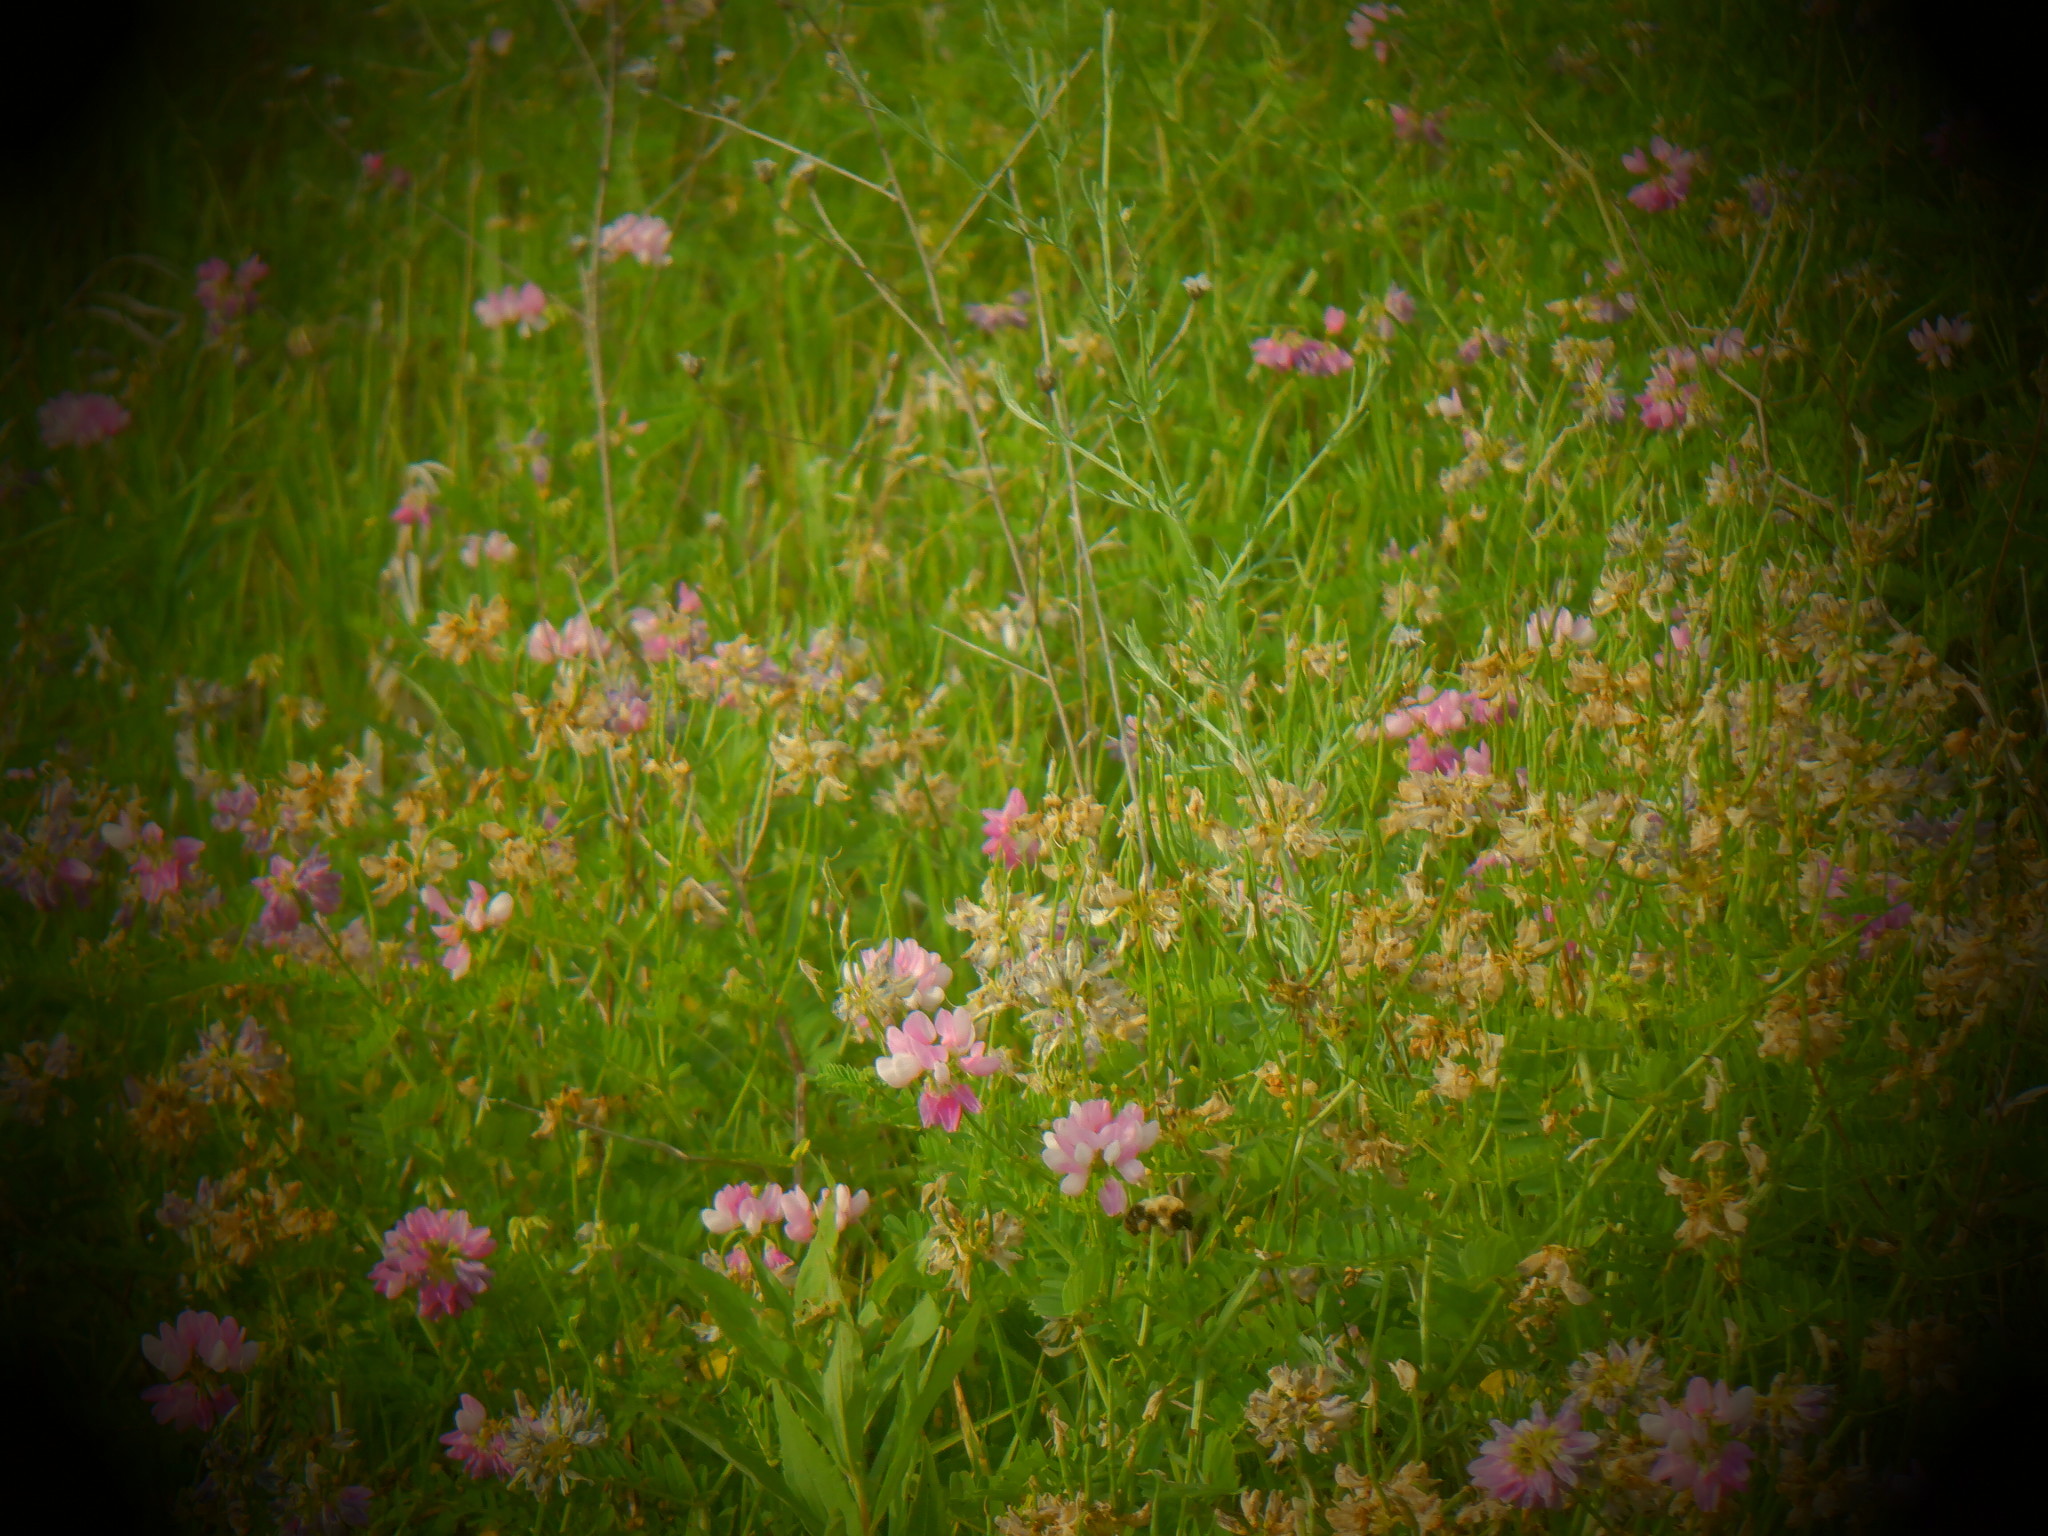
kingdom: Plantae
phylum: Tracheophyta
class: Magnoliopsida
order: Fabales
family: Fabaceae
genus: Coronilla
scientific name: Coronilla varia
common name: Crownvetch
